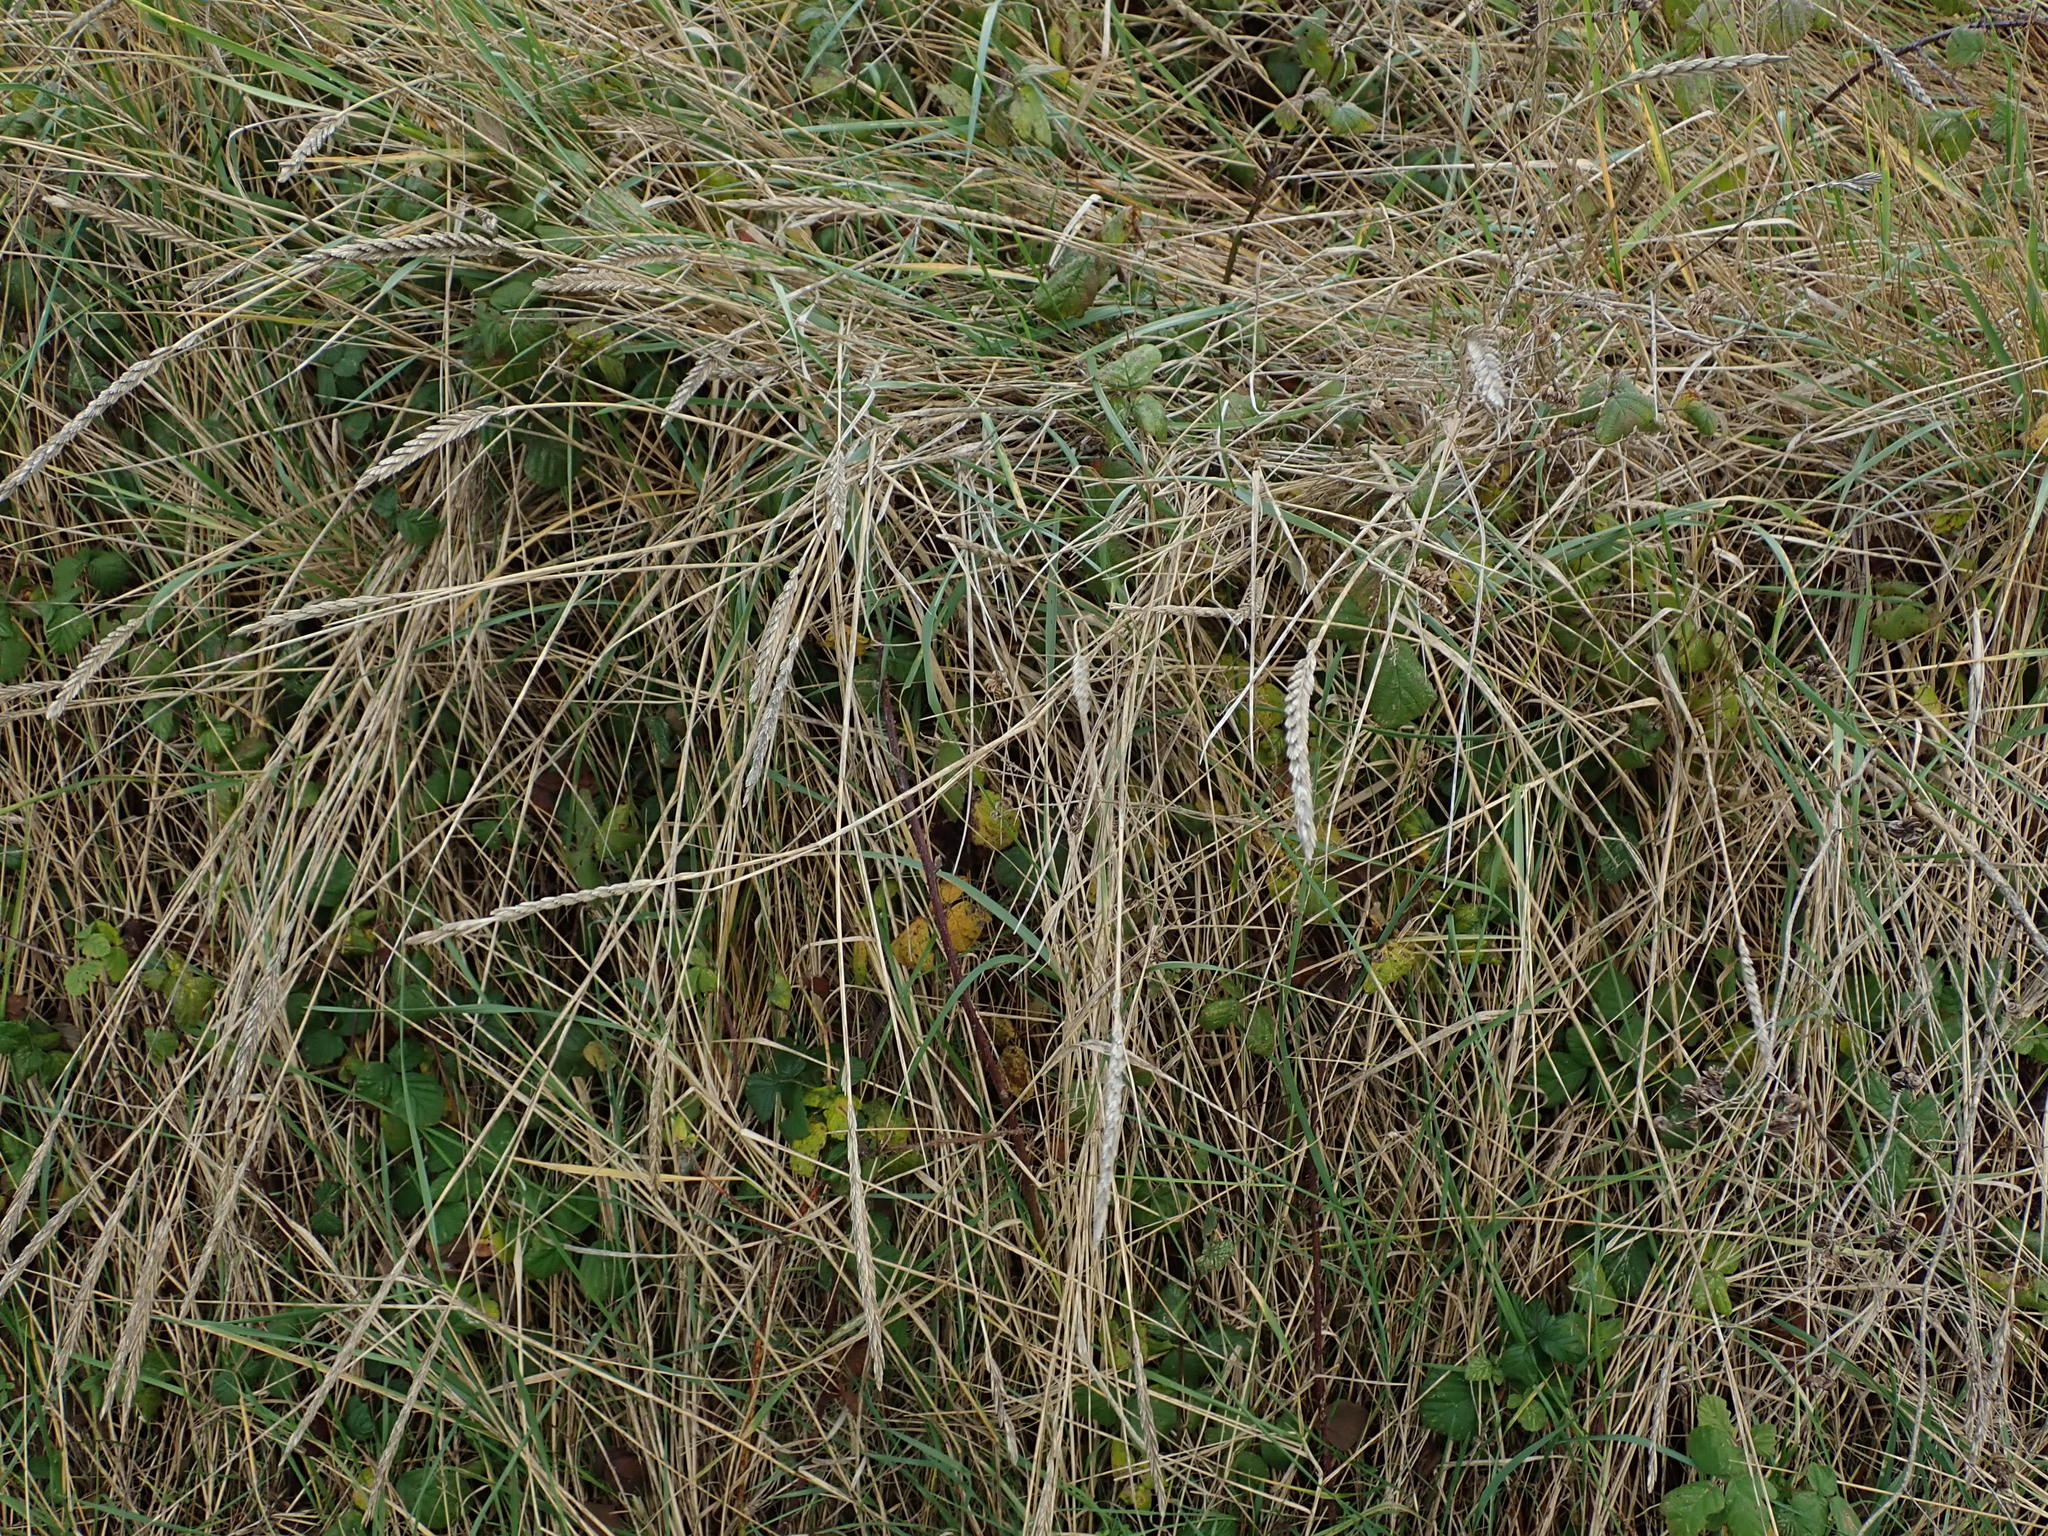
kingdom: Plantae
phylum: Tracheophyta
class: Liliopsida
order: Poales
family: Poaceae
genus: Elymus
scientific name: Elymus athericus
